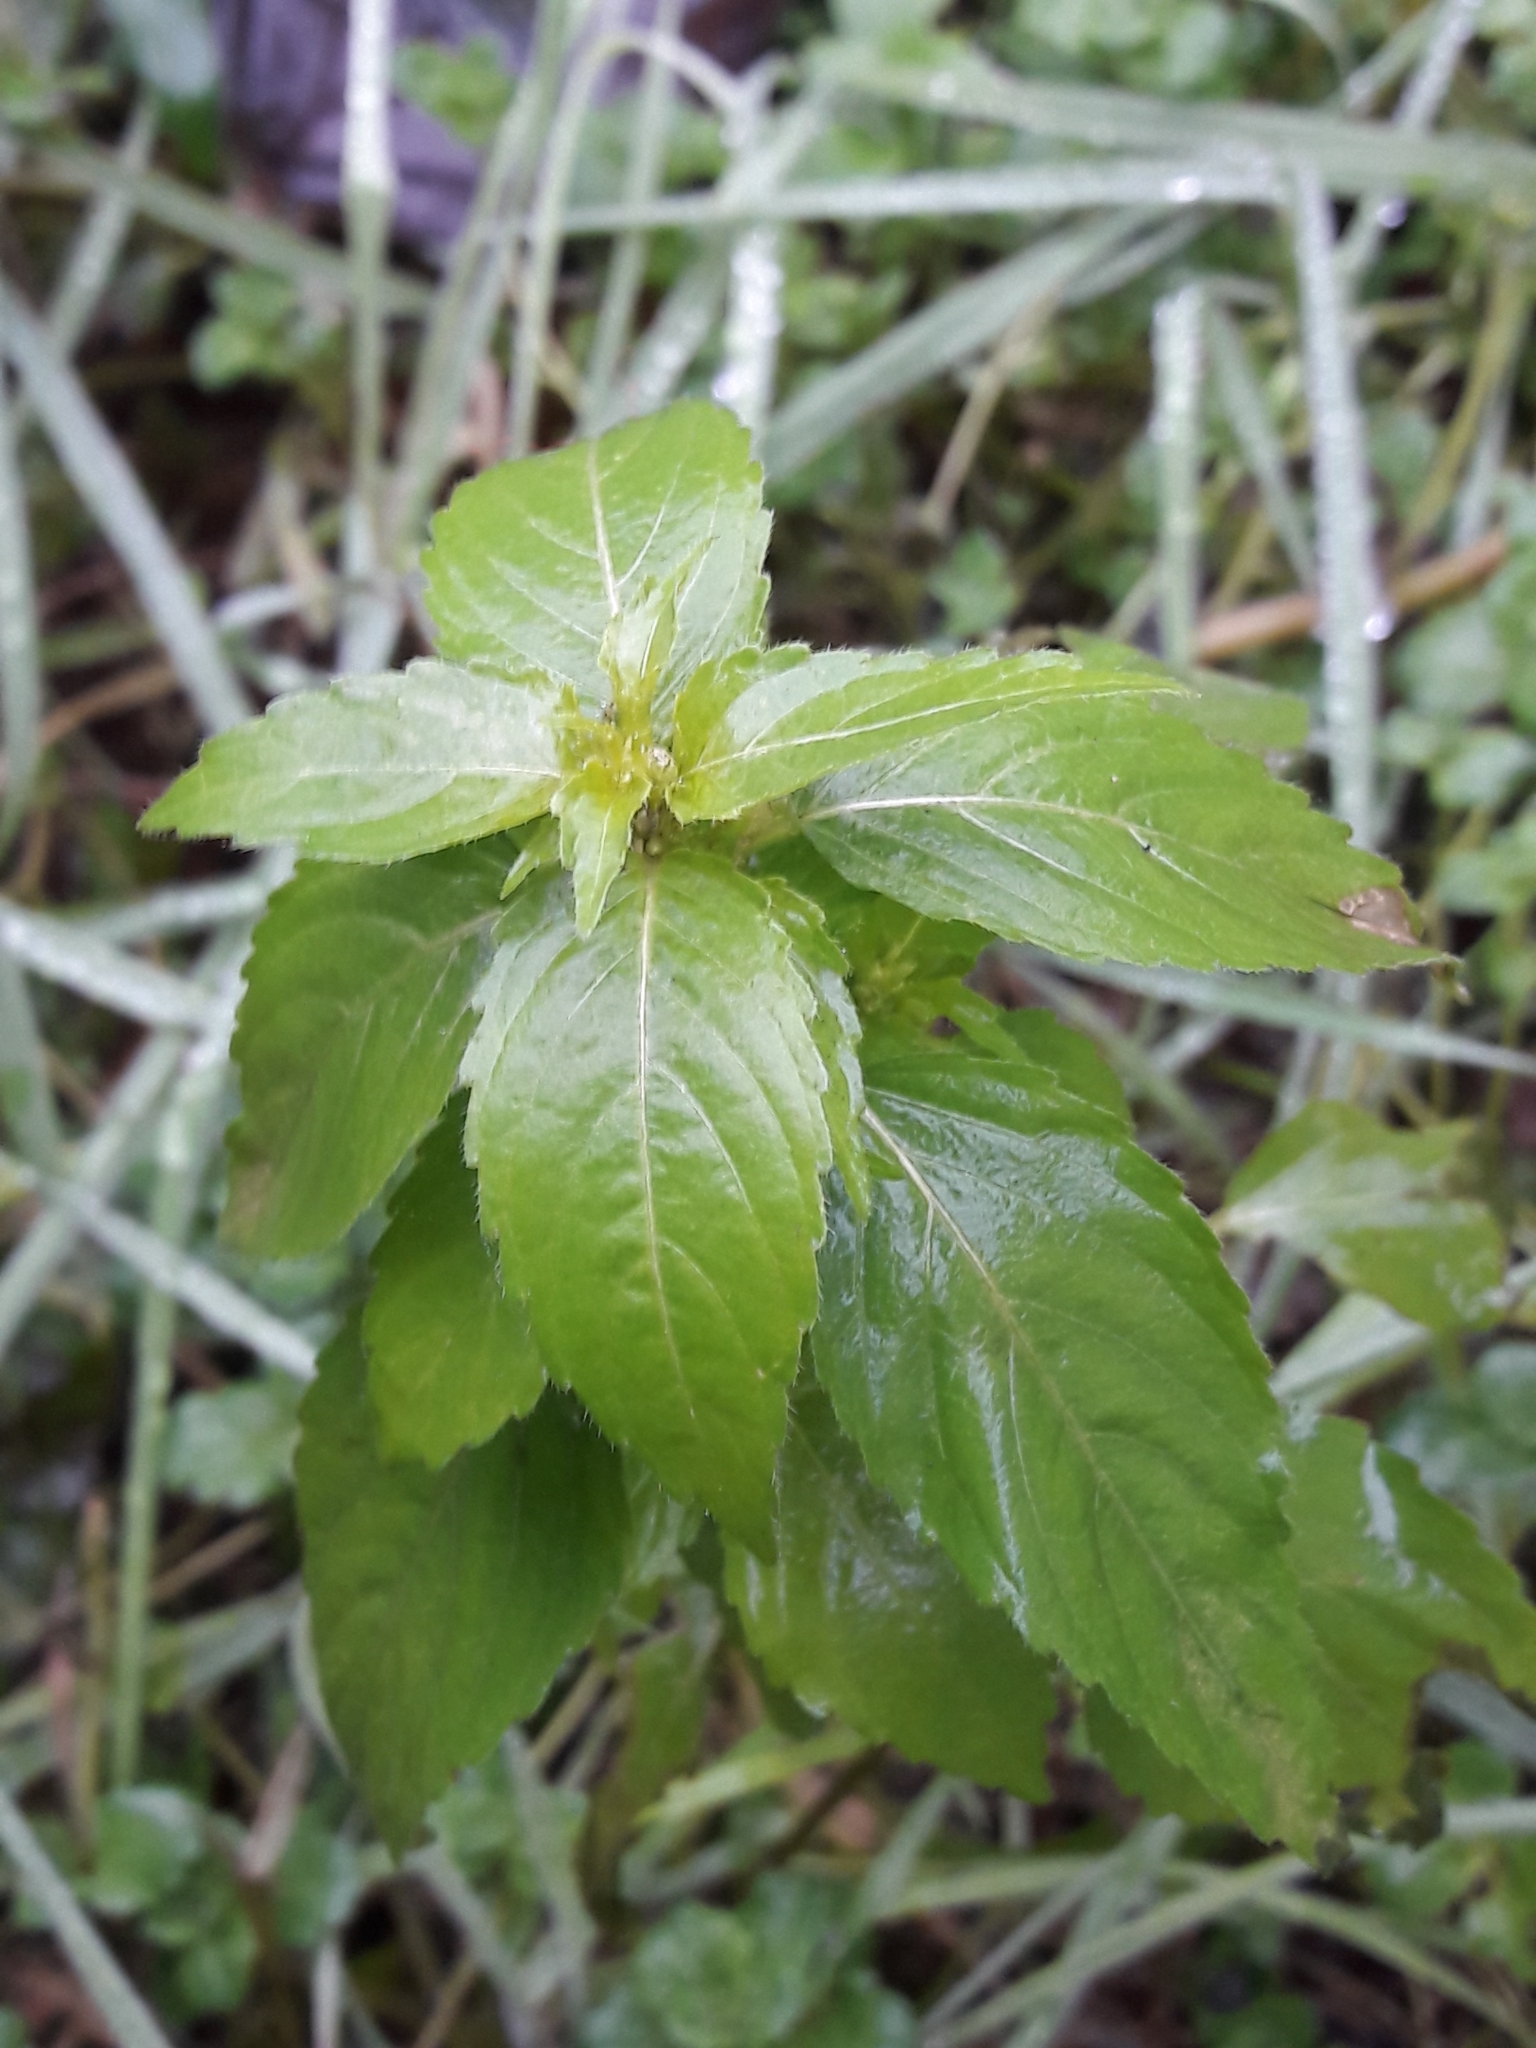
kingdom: Plantae
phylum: Tracheophyta
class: Magnoliopsida
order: Malpighiales
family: Euphorbiaceae
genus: Mercurialis
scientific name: Mercurialis annua
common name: Annual mercury
